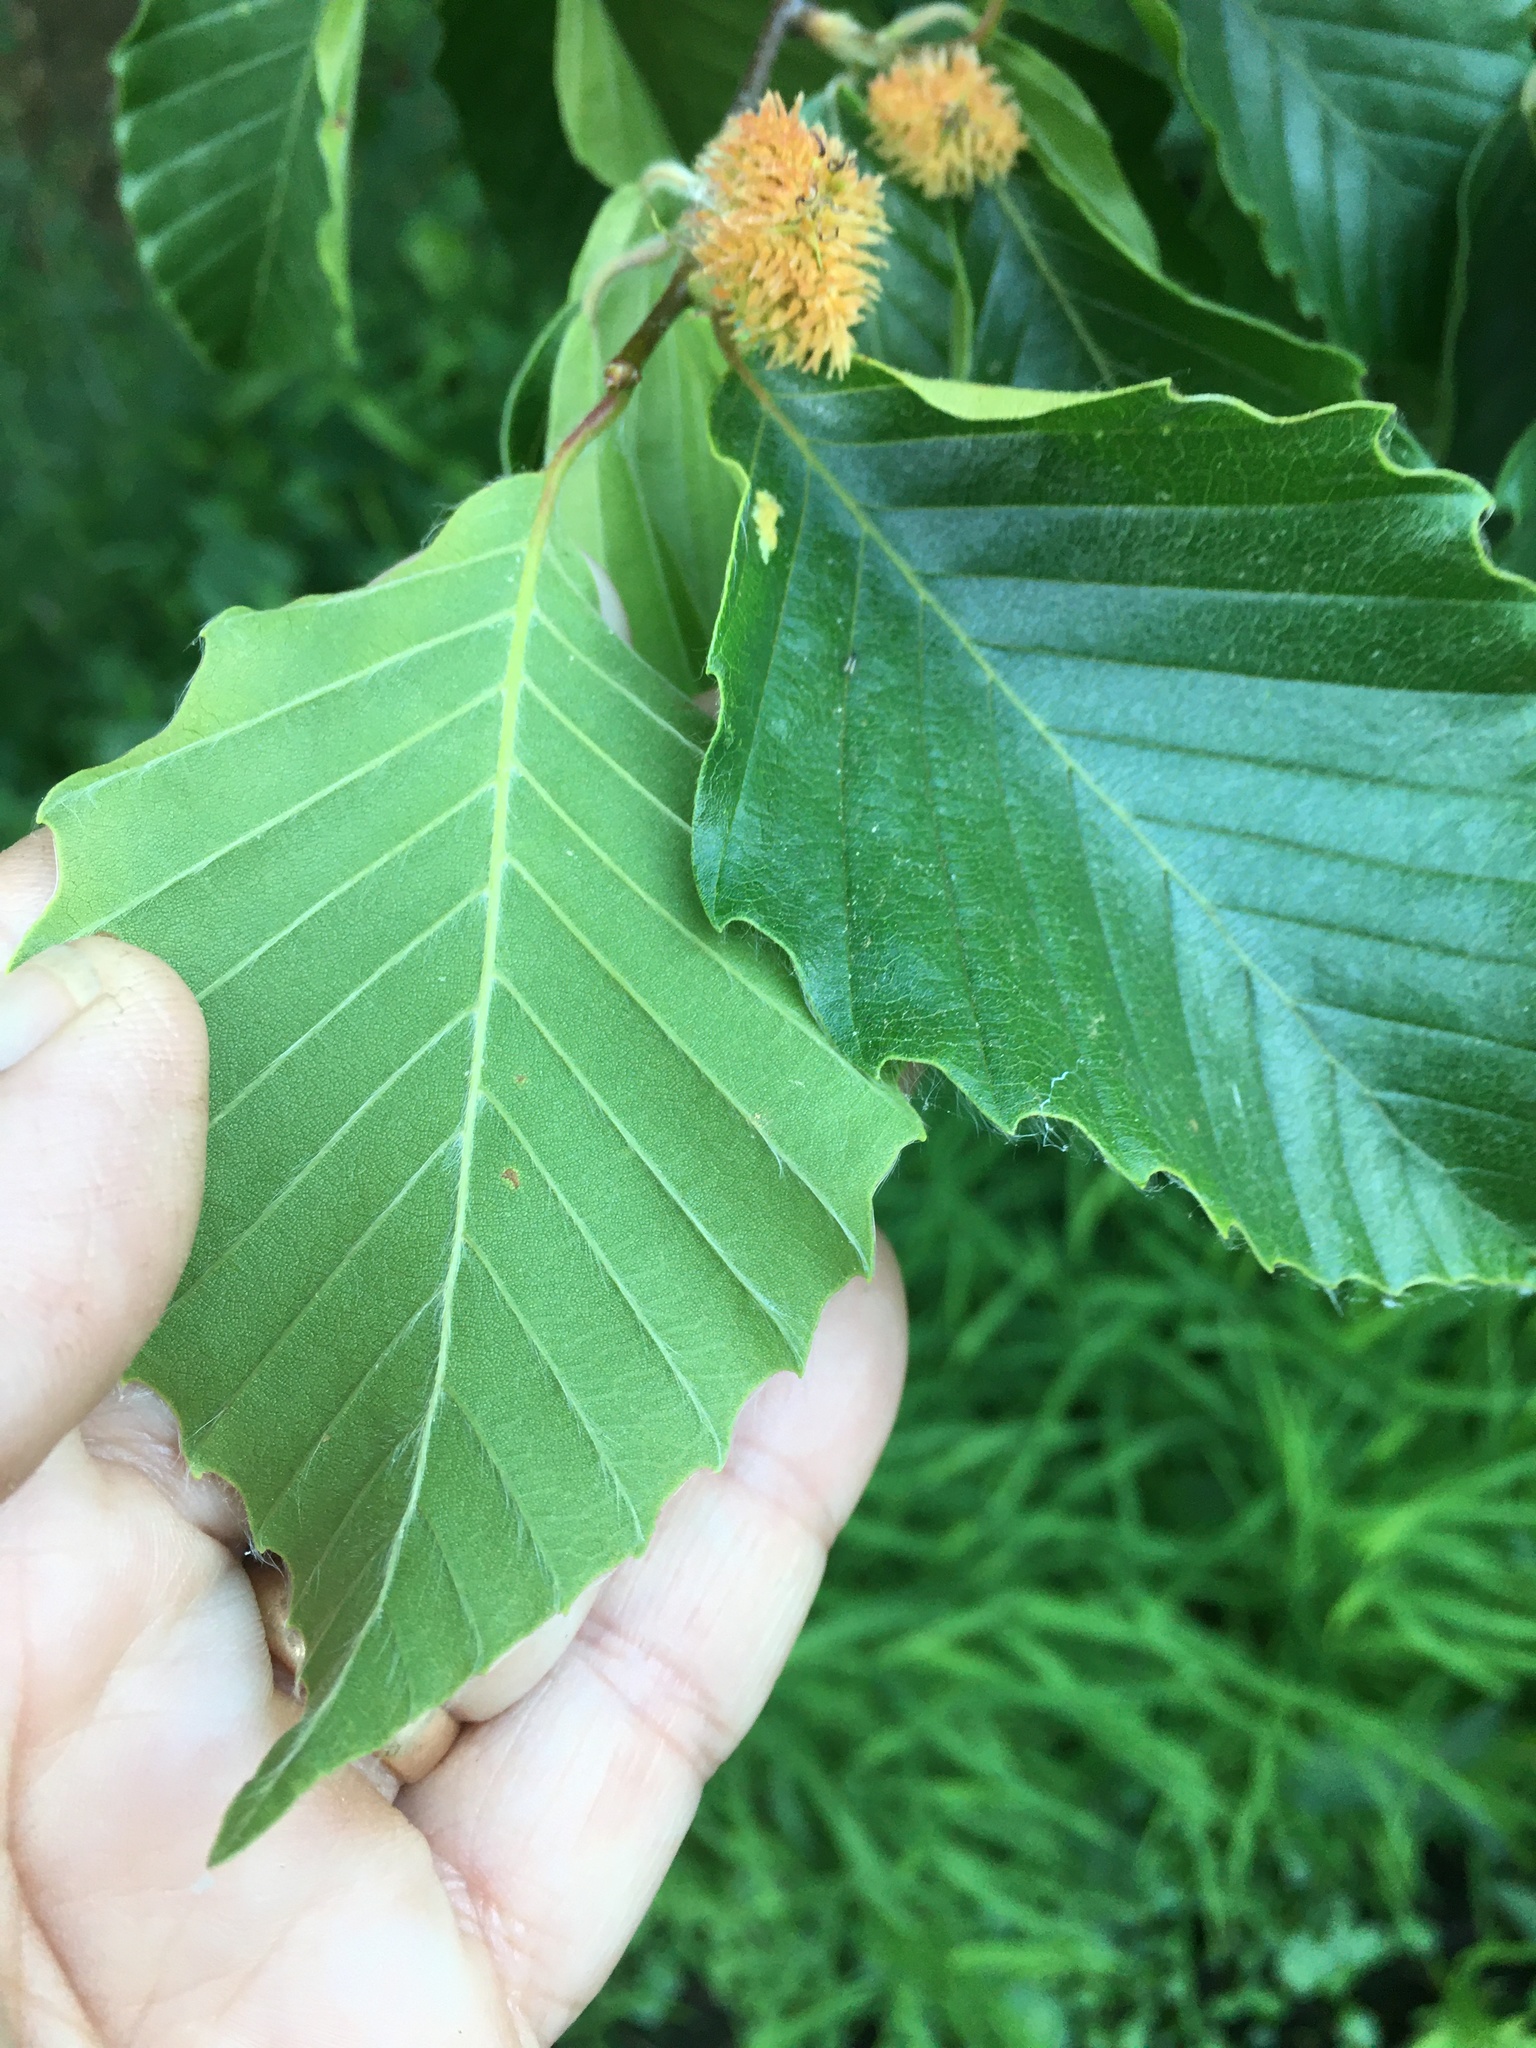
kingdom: Plantae
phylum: Tracheophyta
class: Magnoliopsida
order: Fagales
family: Fagaceae
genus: Fagus
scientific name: Fagus grandifolia
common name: American beech
